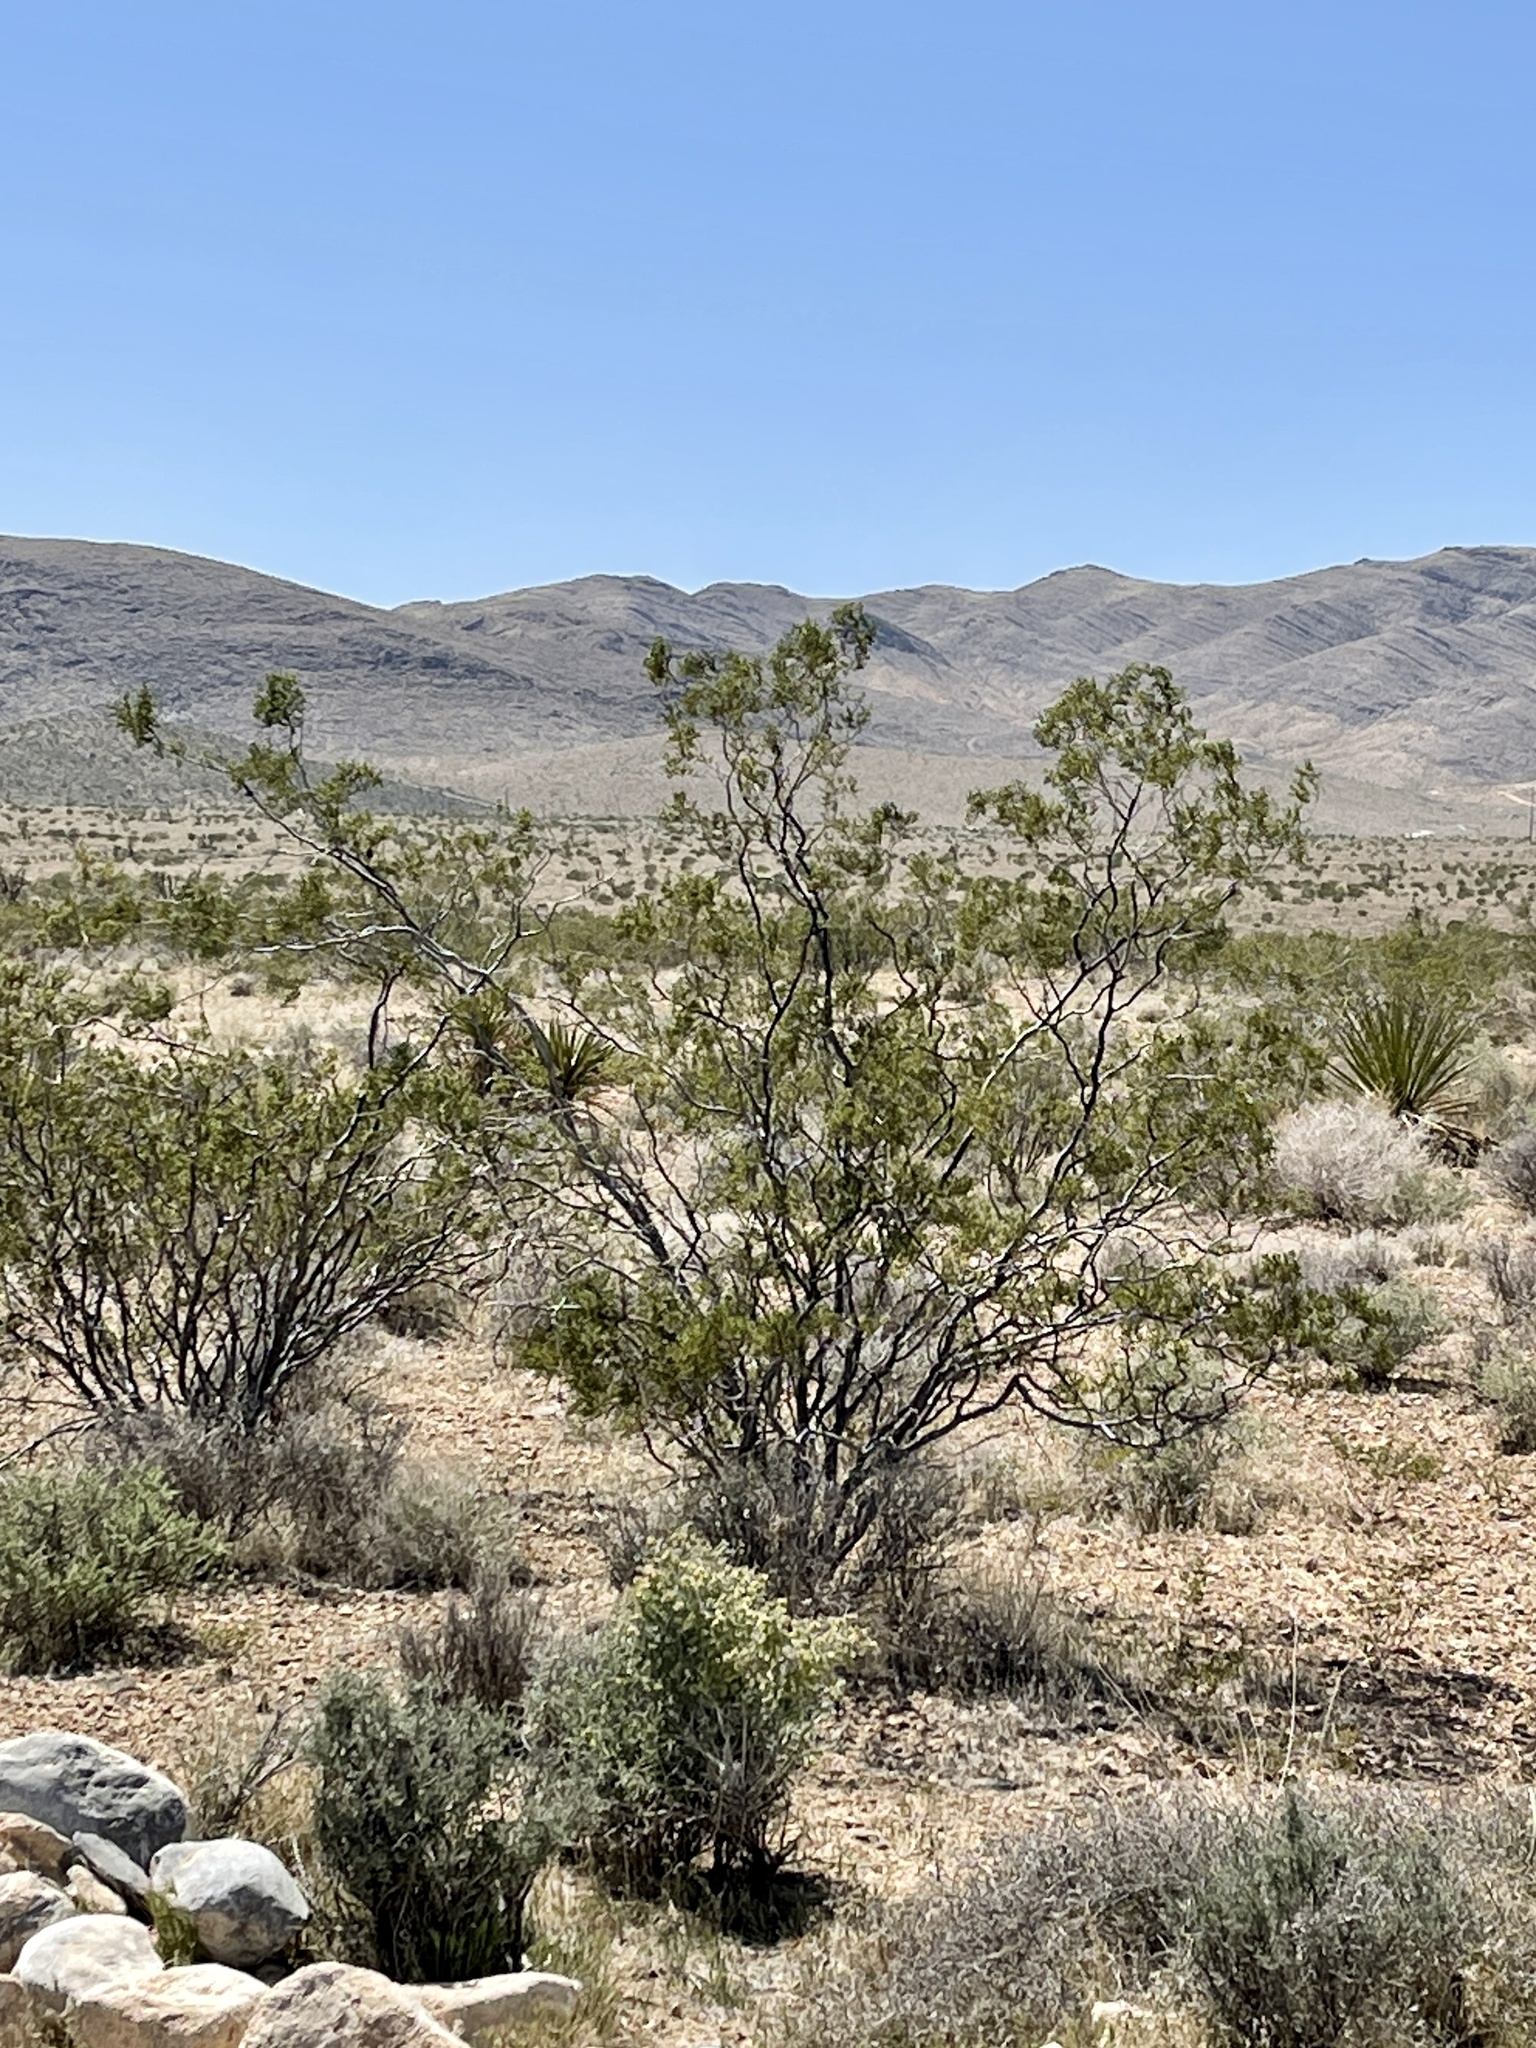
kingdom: Plantae
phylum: Tracheophyta
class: Magnoliopsida
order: Zygophyllales
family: Zygophyllaceae
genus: Larrea
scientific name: Larrea tridentata
